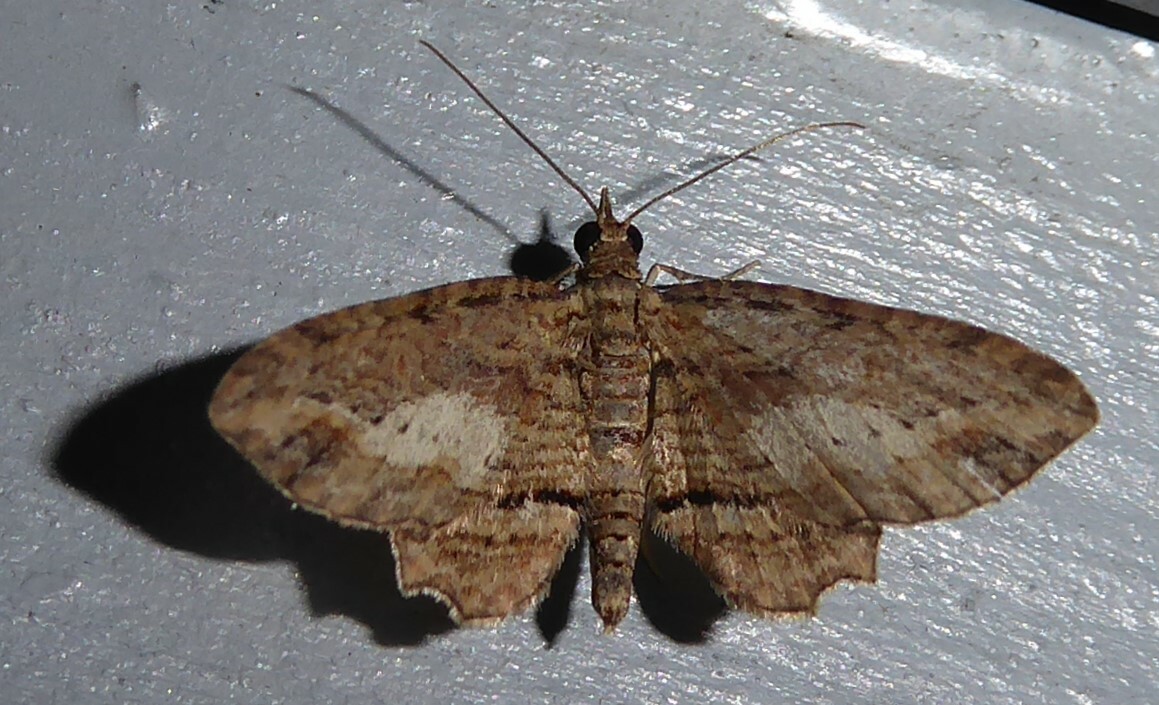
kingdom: Animalia
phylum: Arthropoda
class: Insecta
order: Lepidoptera
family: Geometridae
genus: Chloroclystis
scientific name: Chloroclystis filata
